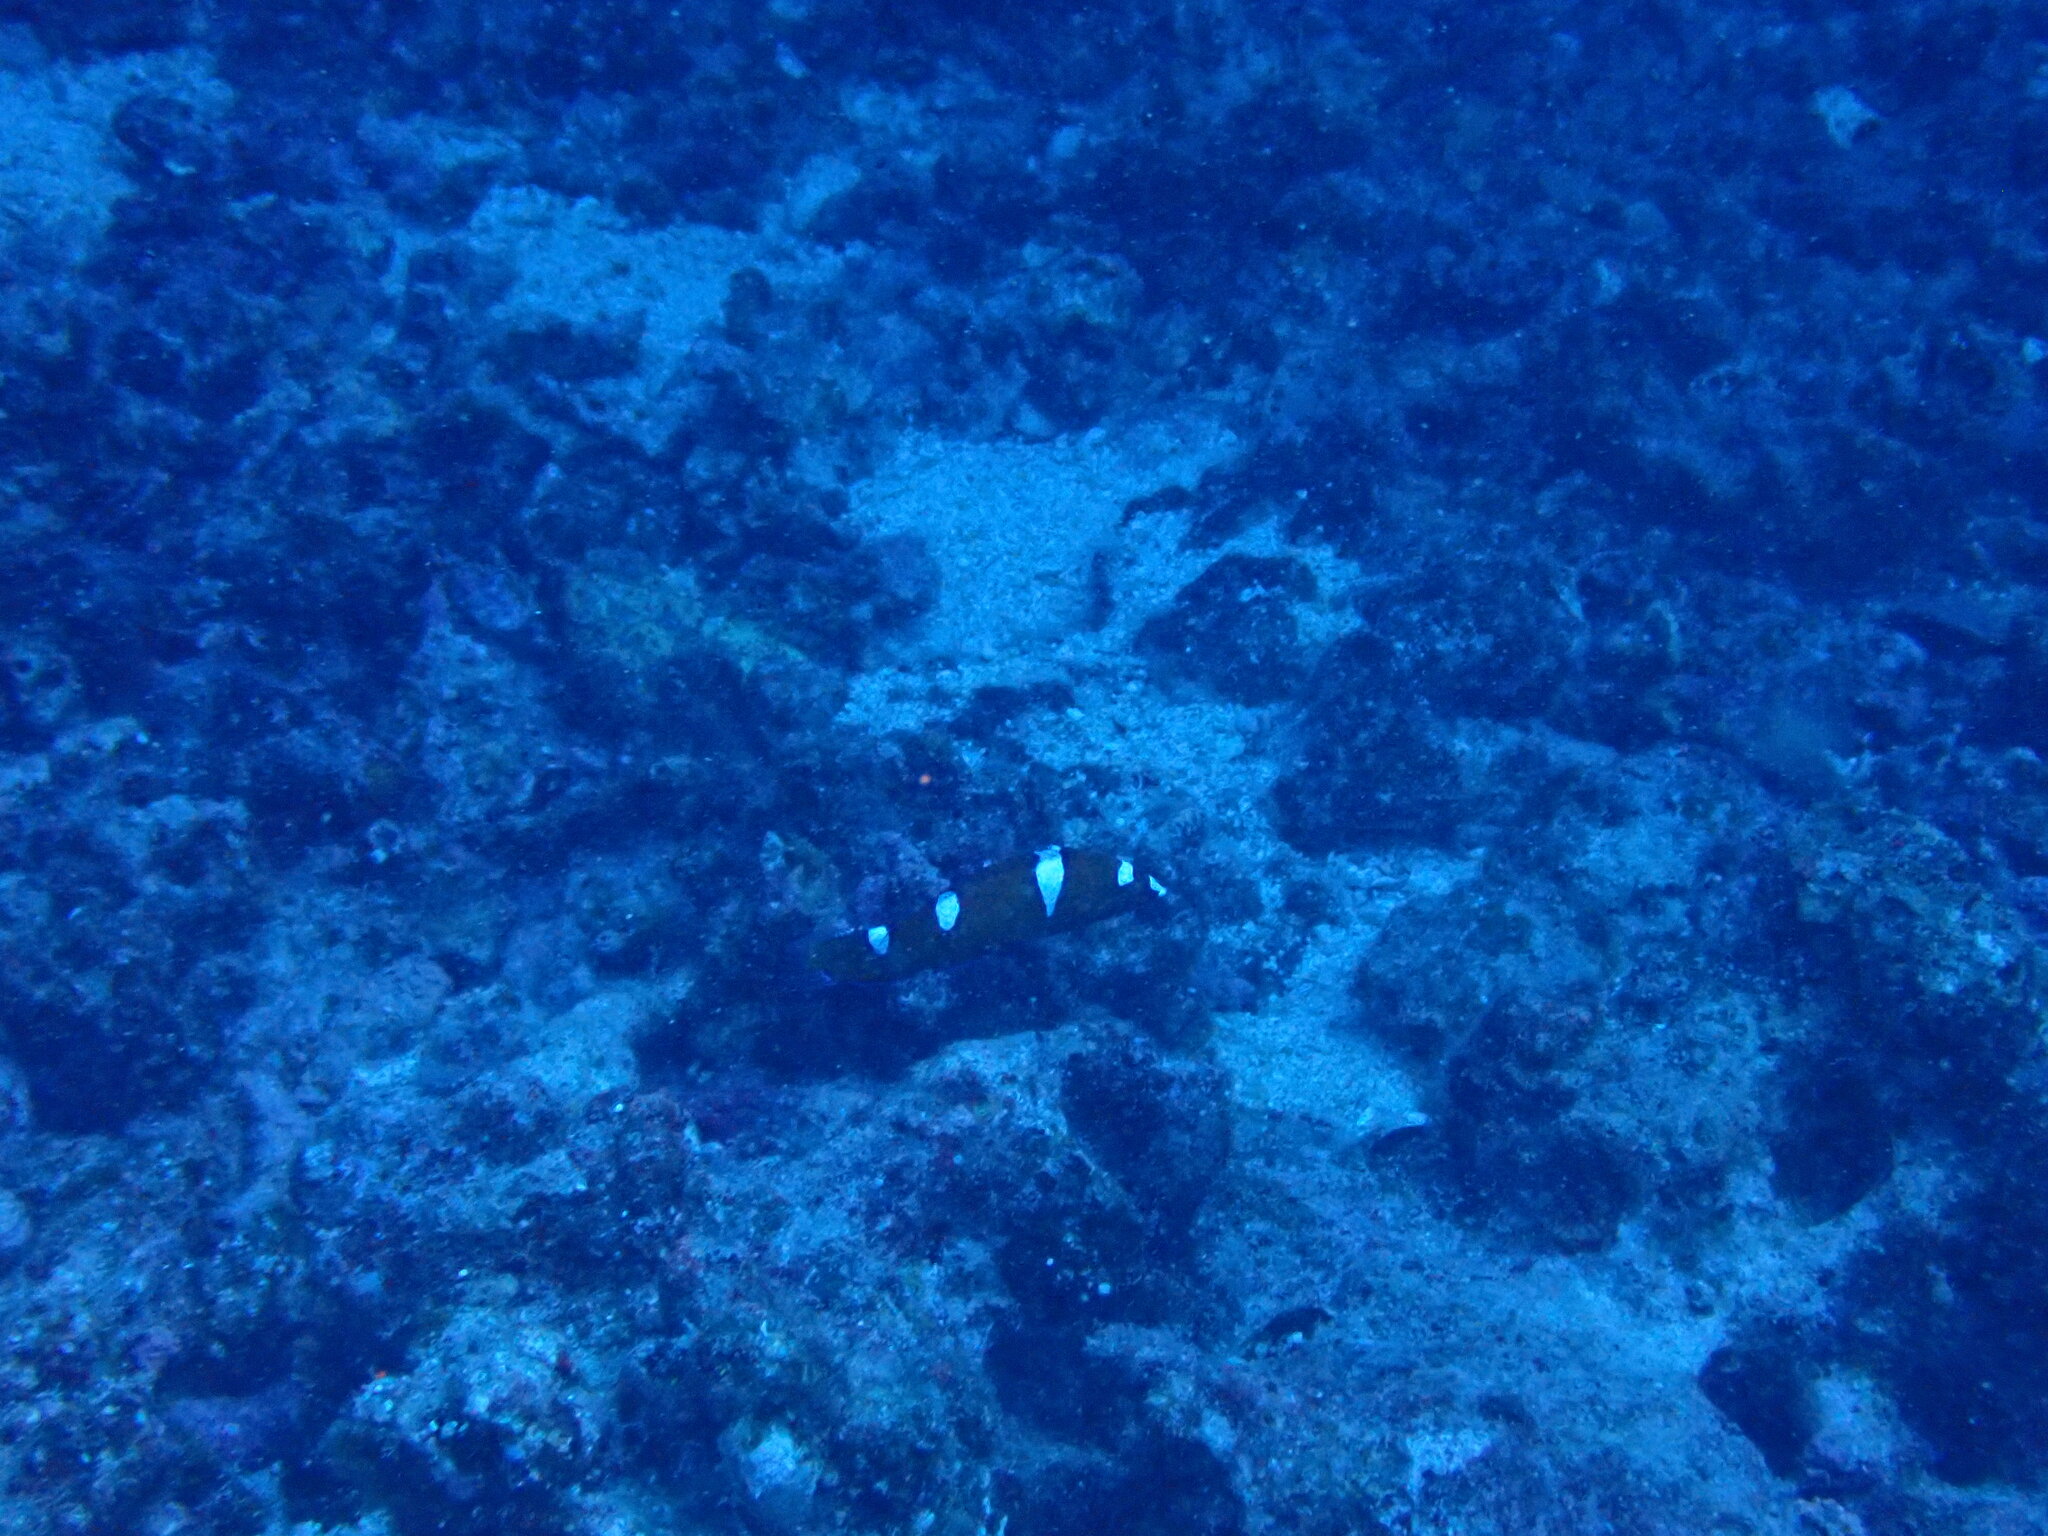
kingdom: Animalia
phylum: Chordata
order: Perciformes
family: Labridae
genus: Coris
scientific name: Coris gaimard
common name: Yellowtail coris
